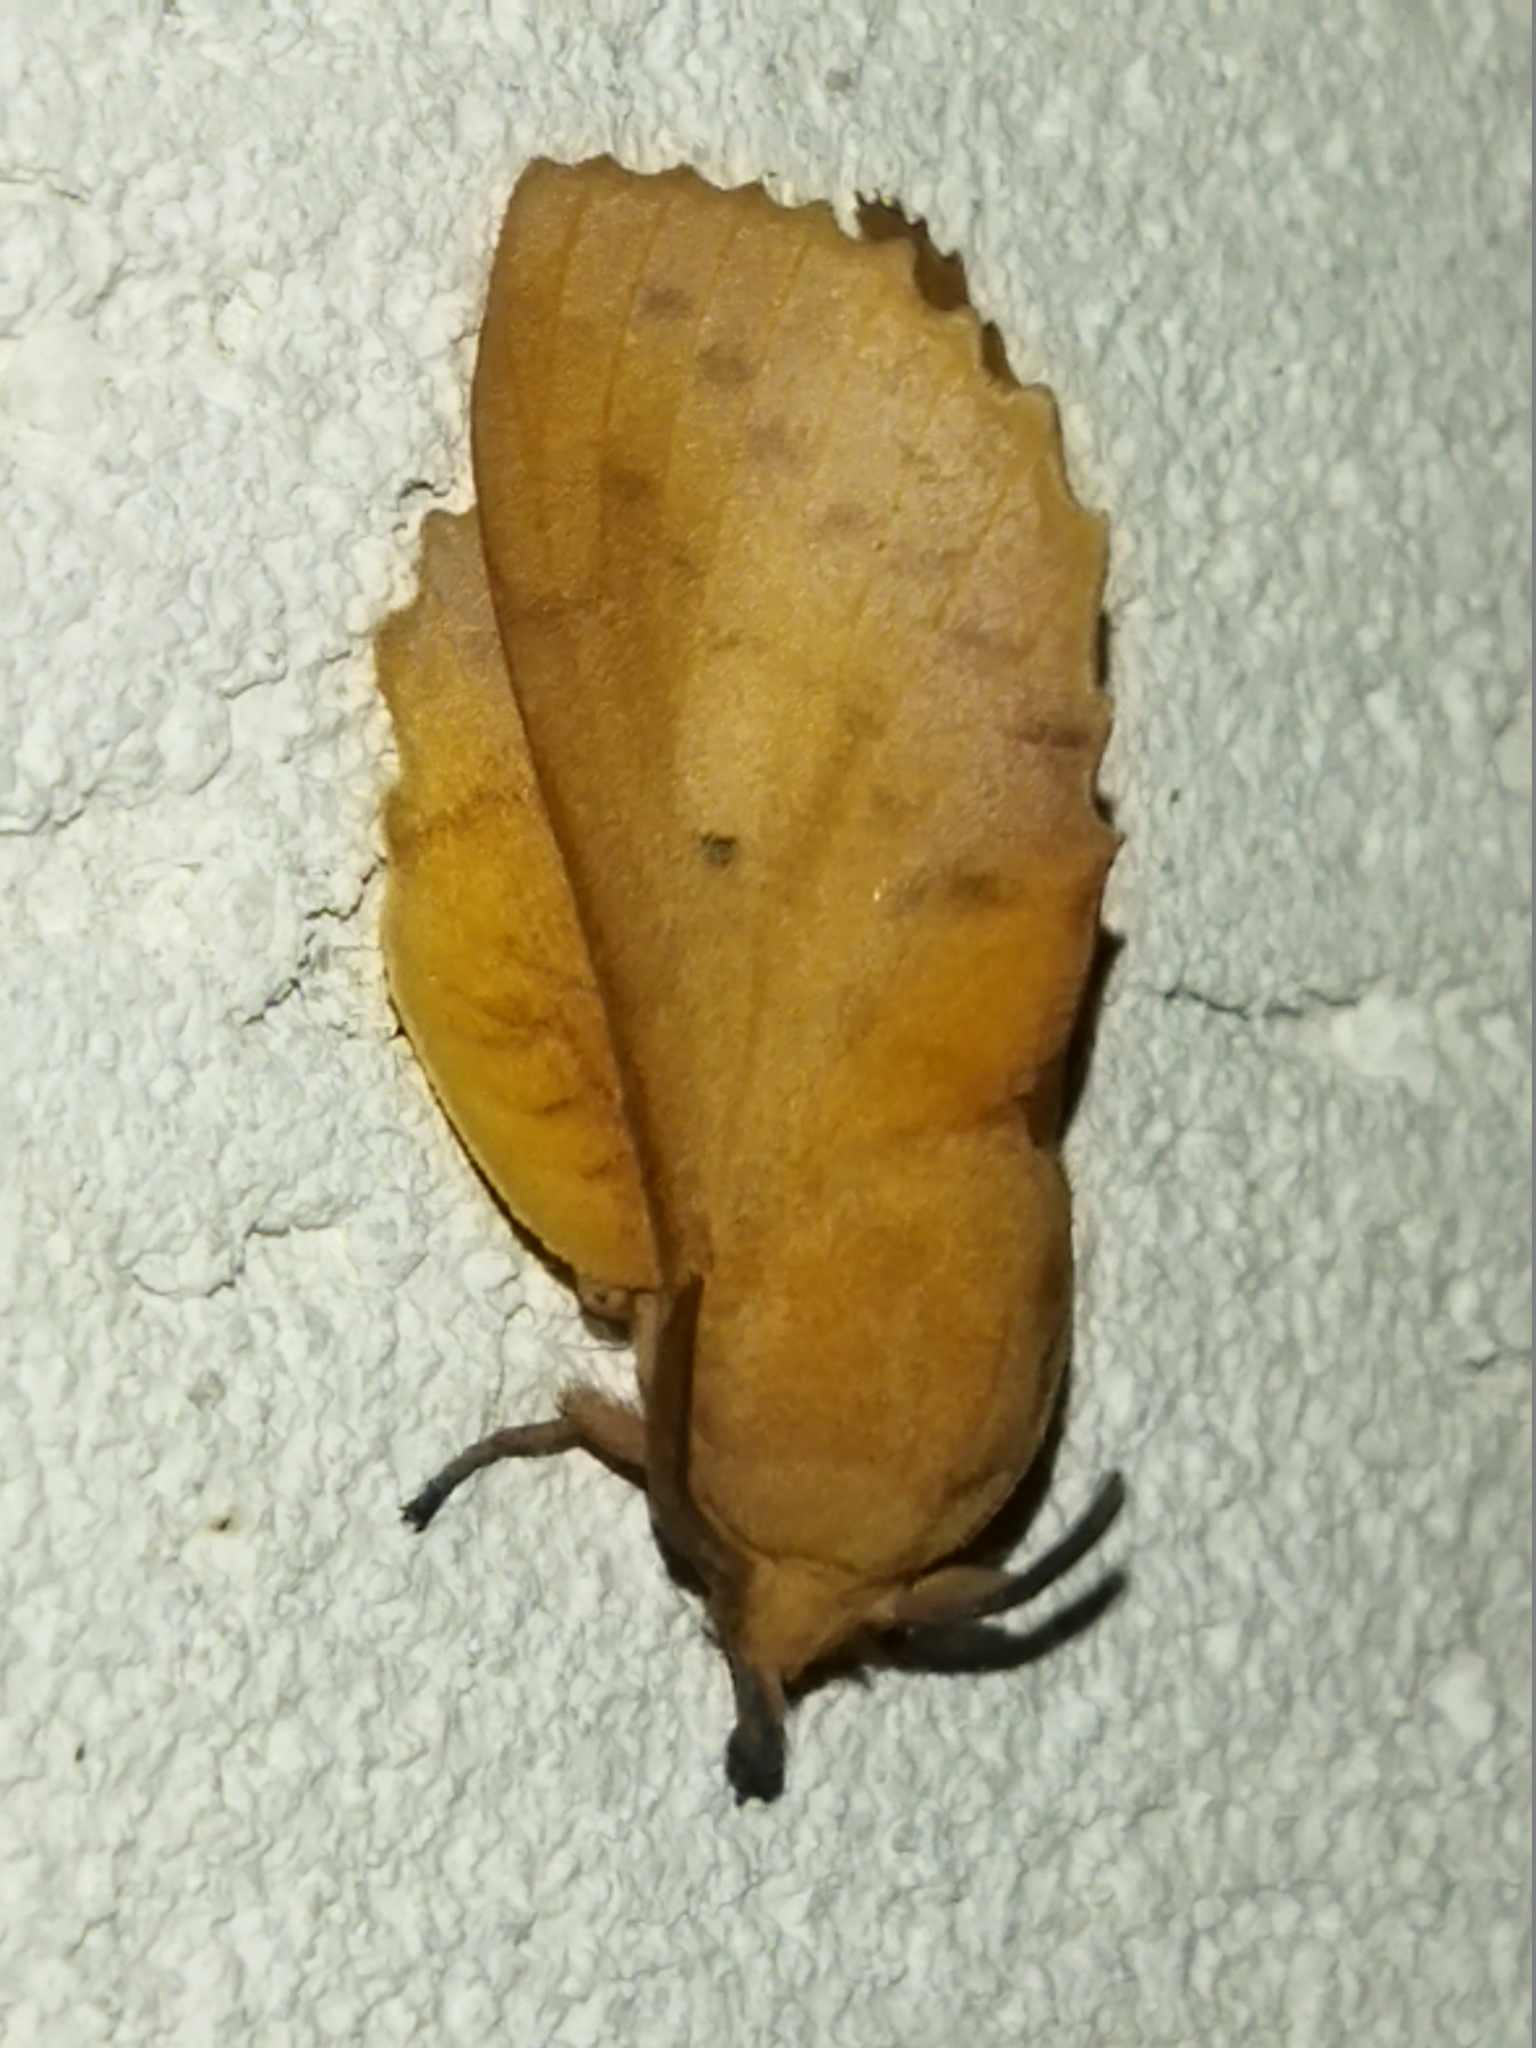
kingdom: Animalia
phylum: Arthropoda
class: Insecta
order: Lepidoptera
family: Lasiocampidae
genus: Gastropacha
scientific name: Gastropacha quercifolia
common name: Lappet
